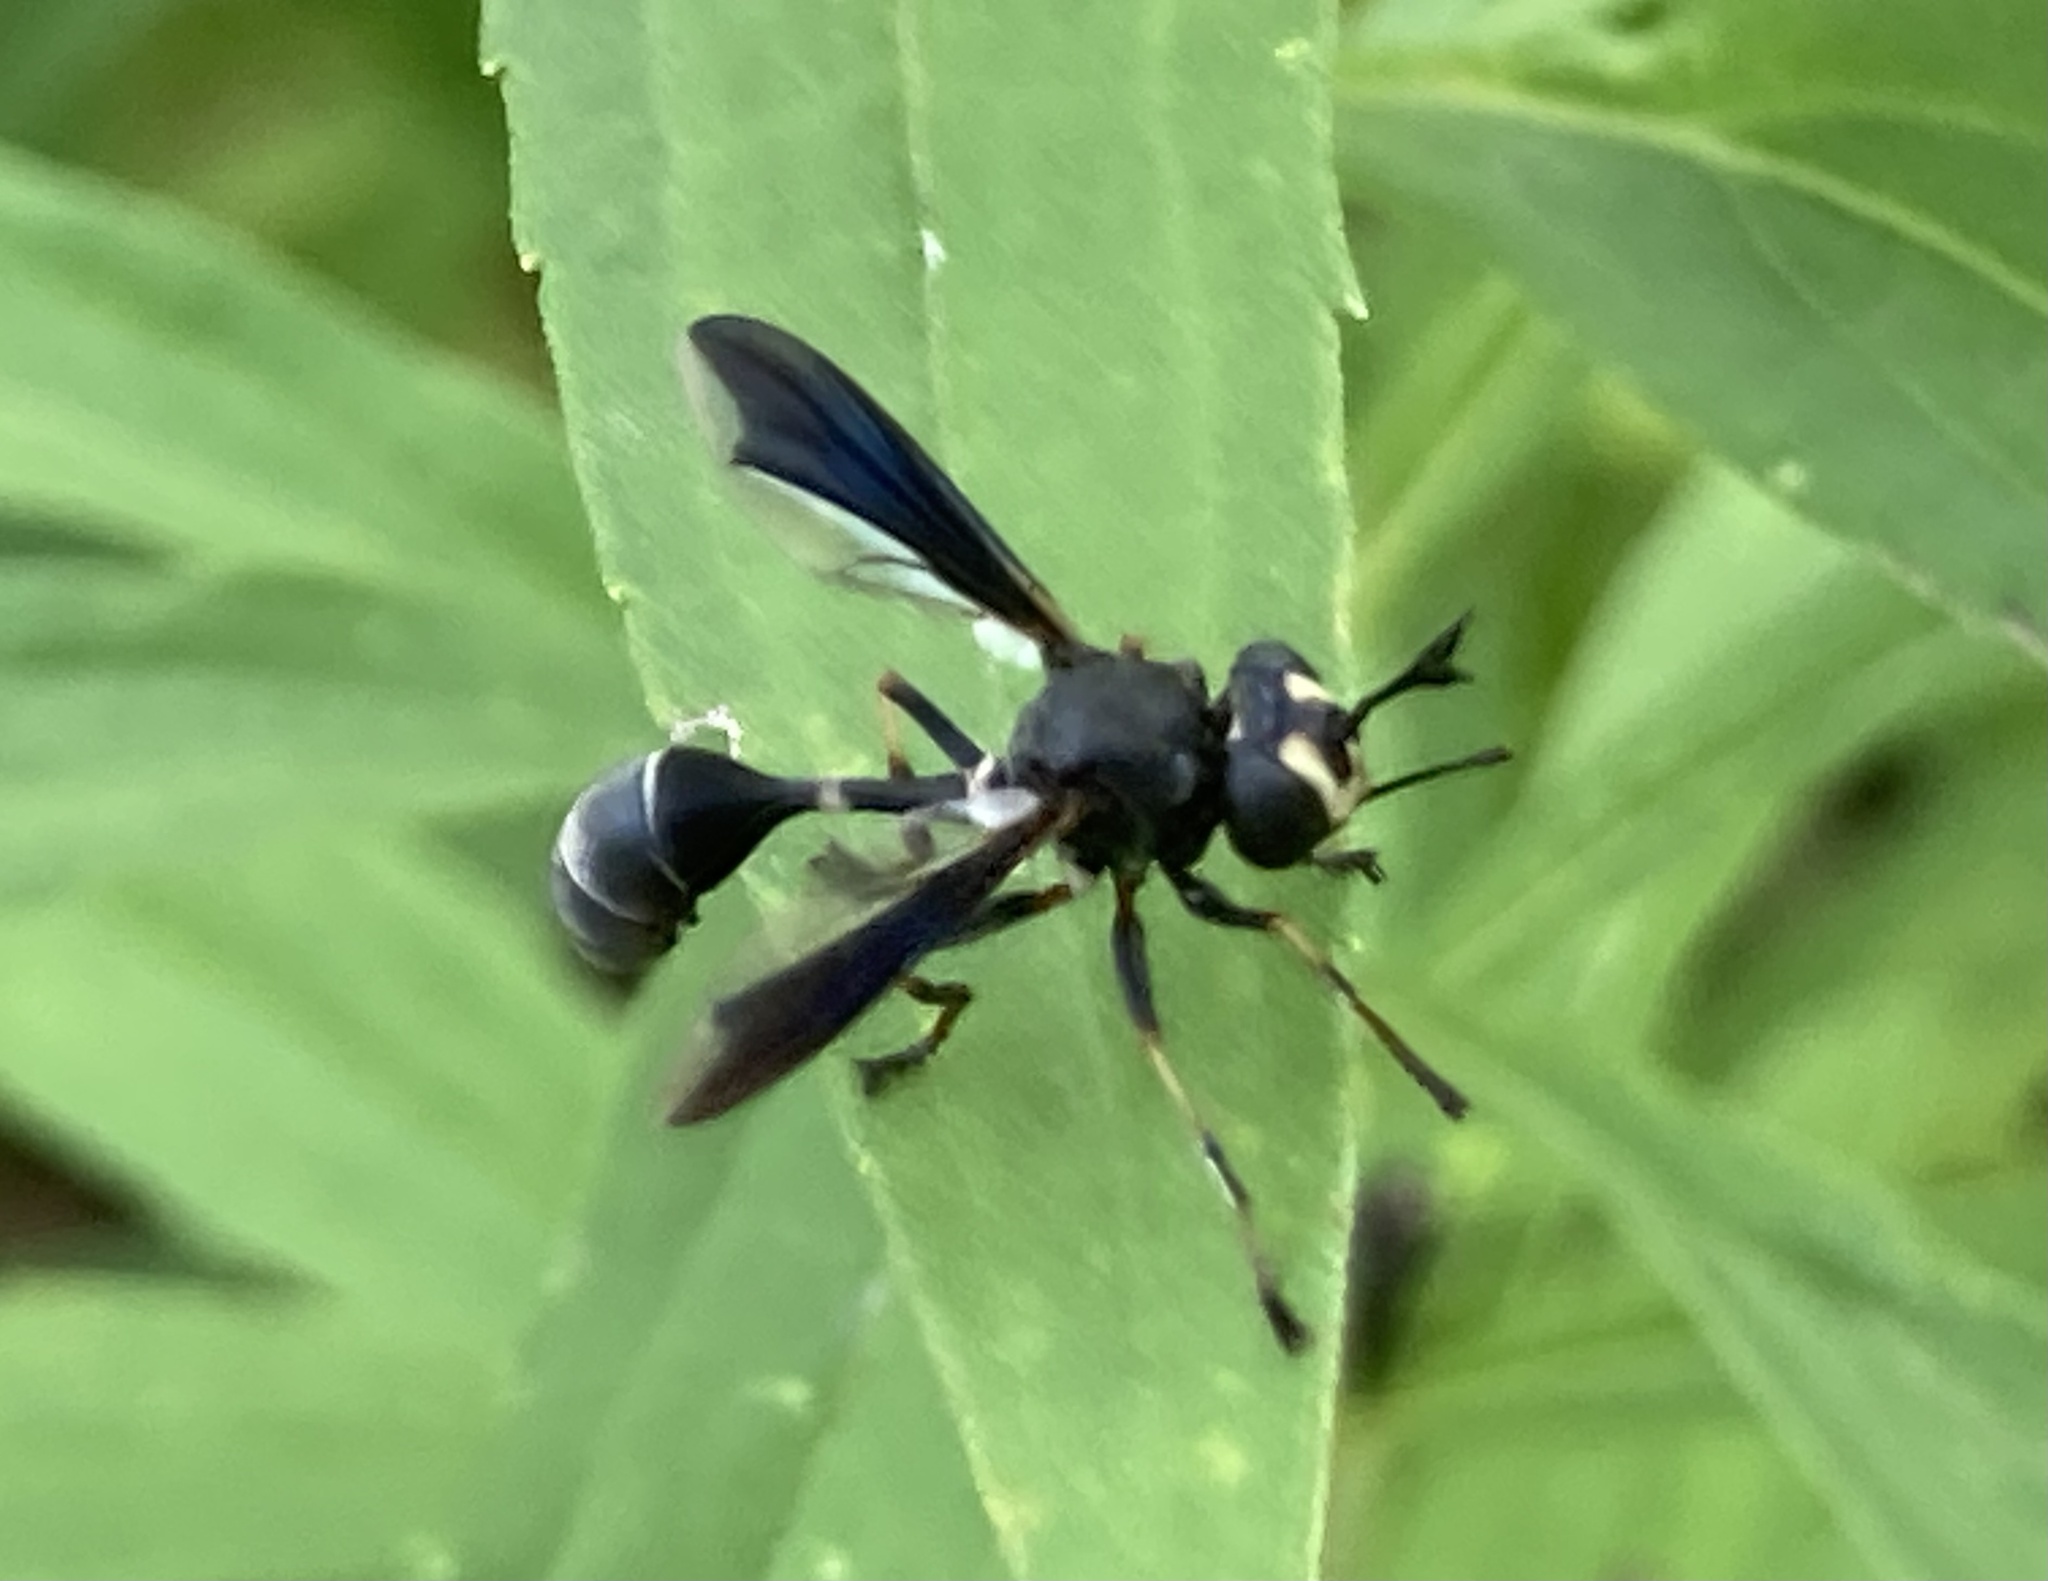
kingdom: Animalia
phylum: Arthropoda
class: Insecta
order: Diptera
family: Conopidae
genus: Physocephala
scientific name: Physocephala tibialis
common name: Common eastern physocephala
